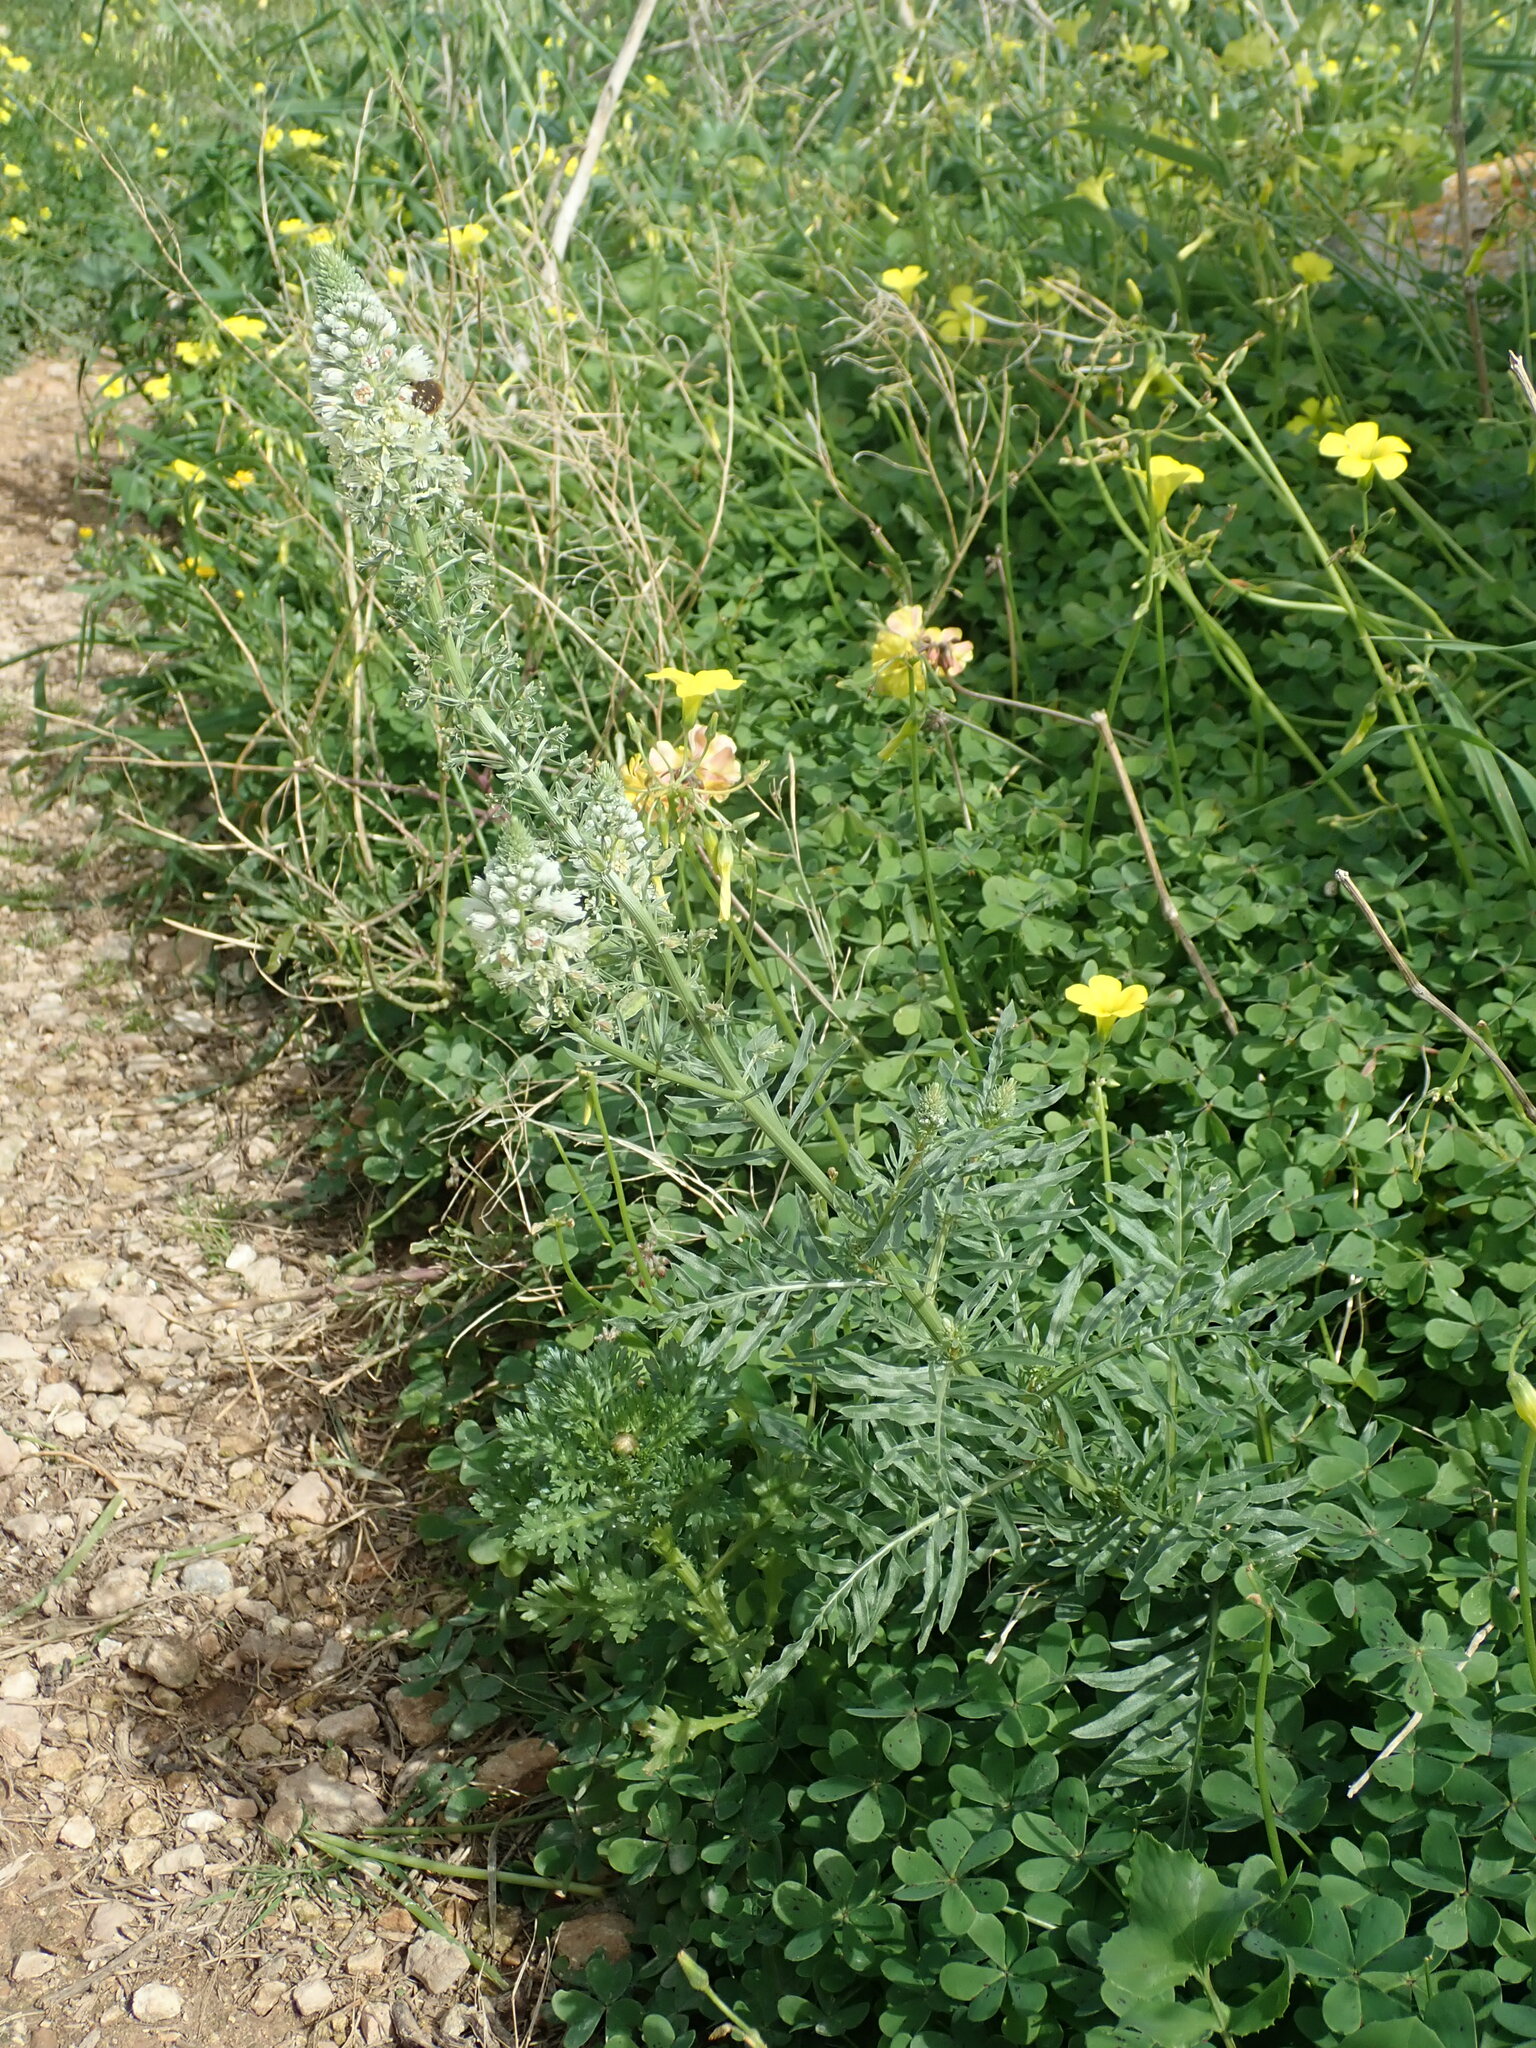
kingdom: Plantae
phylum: Tracheophyta
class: Magnoliopsida
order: Brassicales
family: Resedaceae
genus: Reseda
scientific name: Reseda alba
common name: White mignonette
